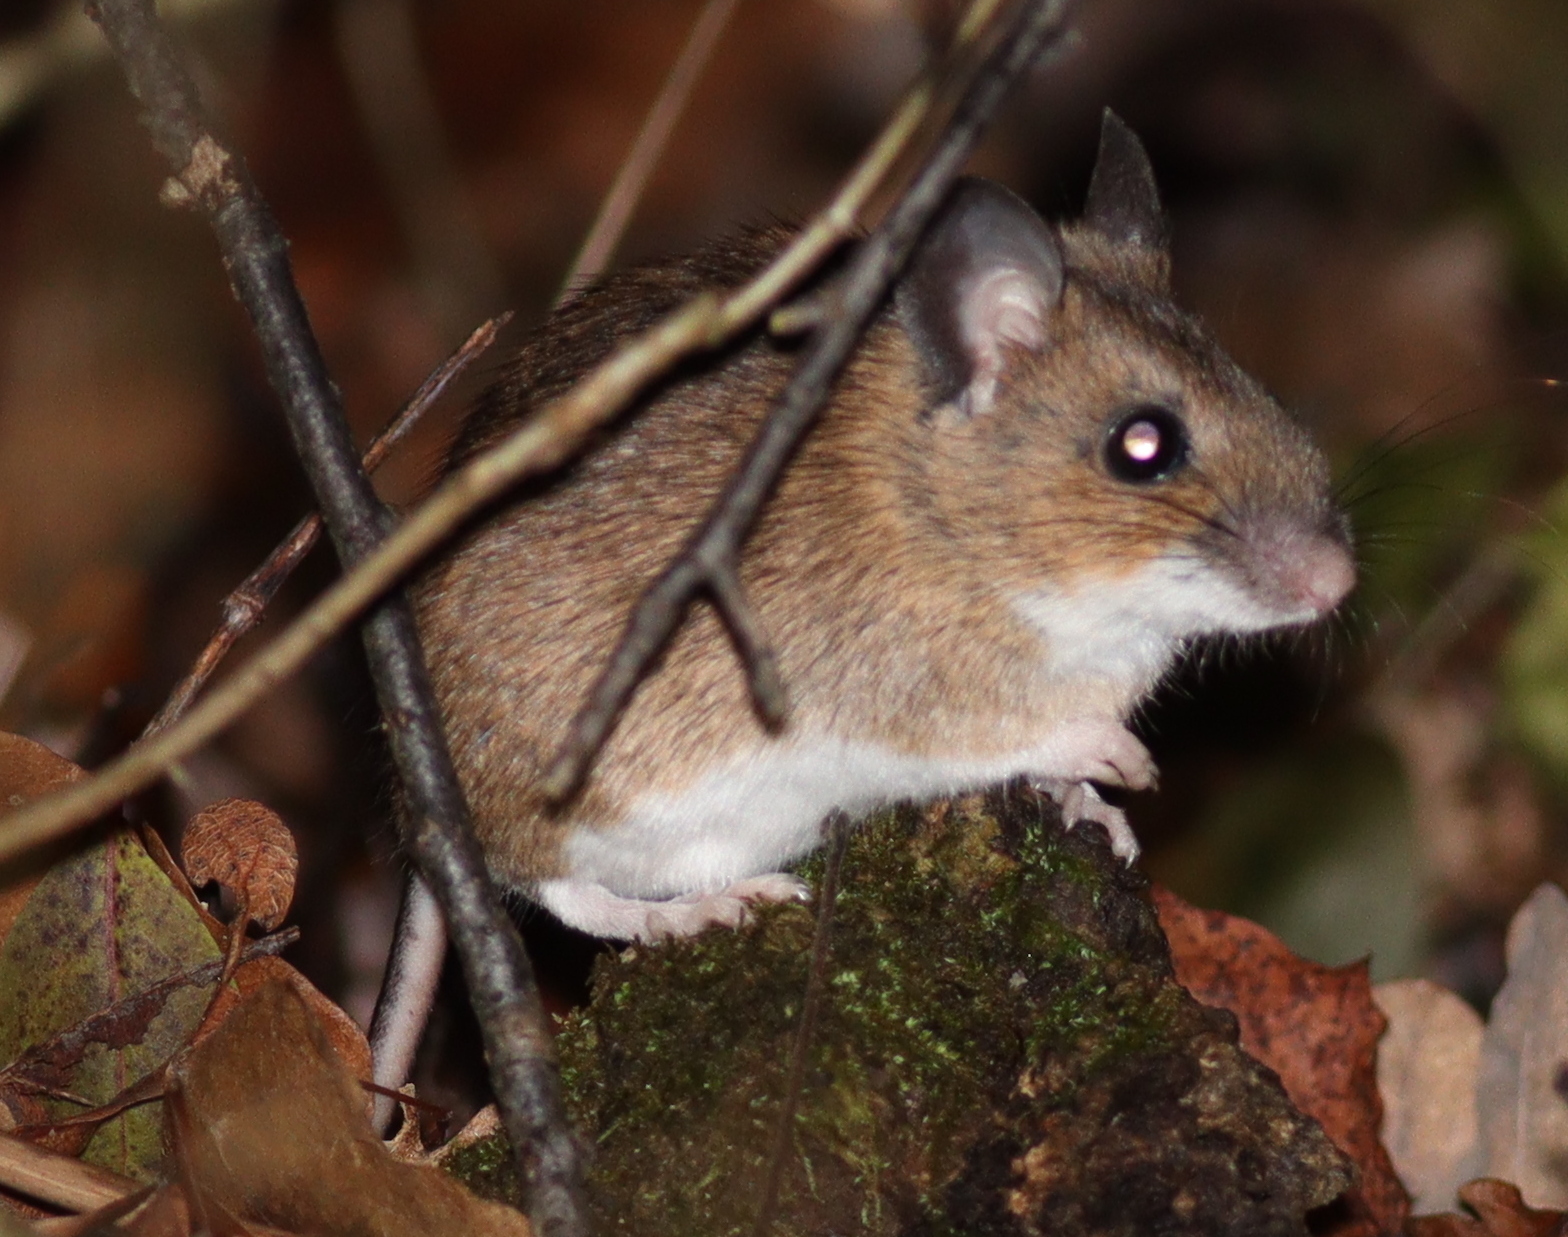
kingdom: Animalia
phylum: Chordata
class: Mammalia
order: Rodentia
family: Muridae
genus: Apodemus
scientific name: Apodemus flavicollis
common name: Yellow-necked field mouse
